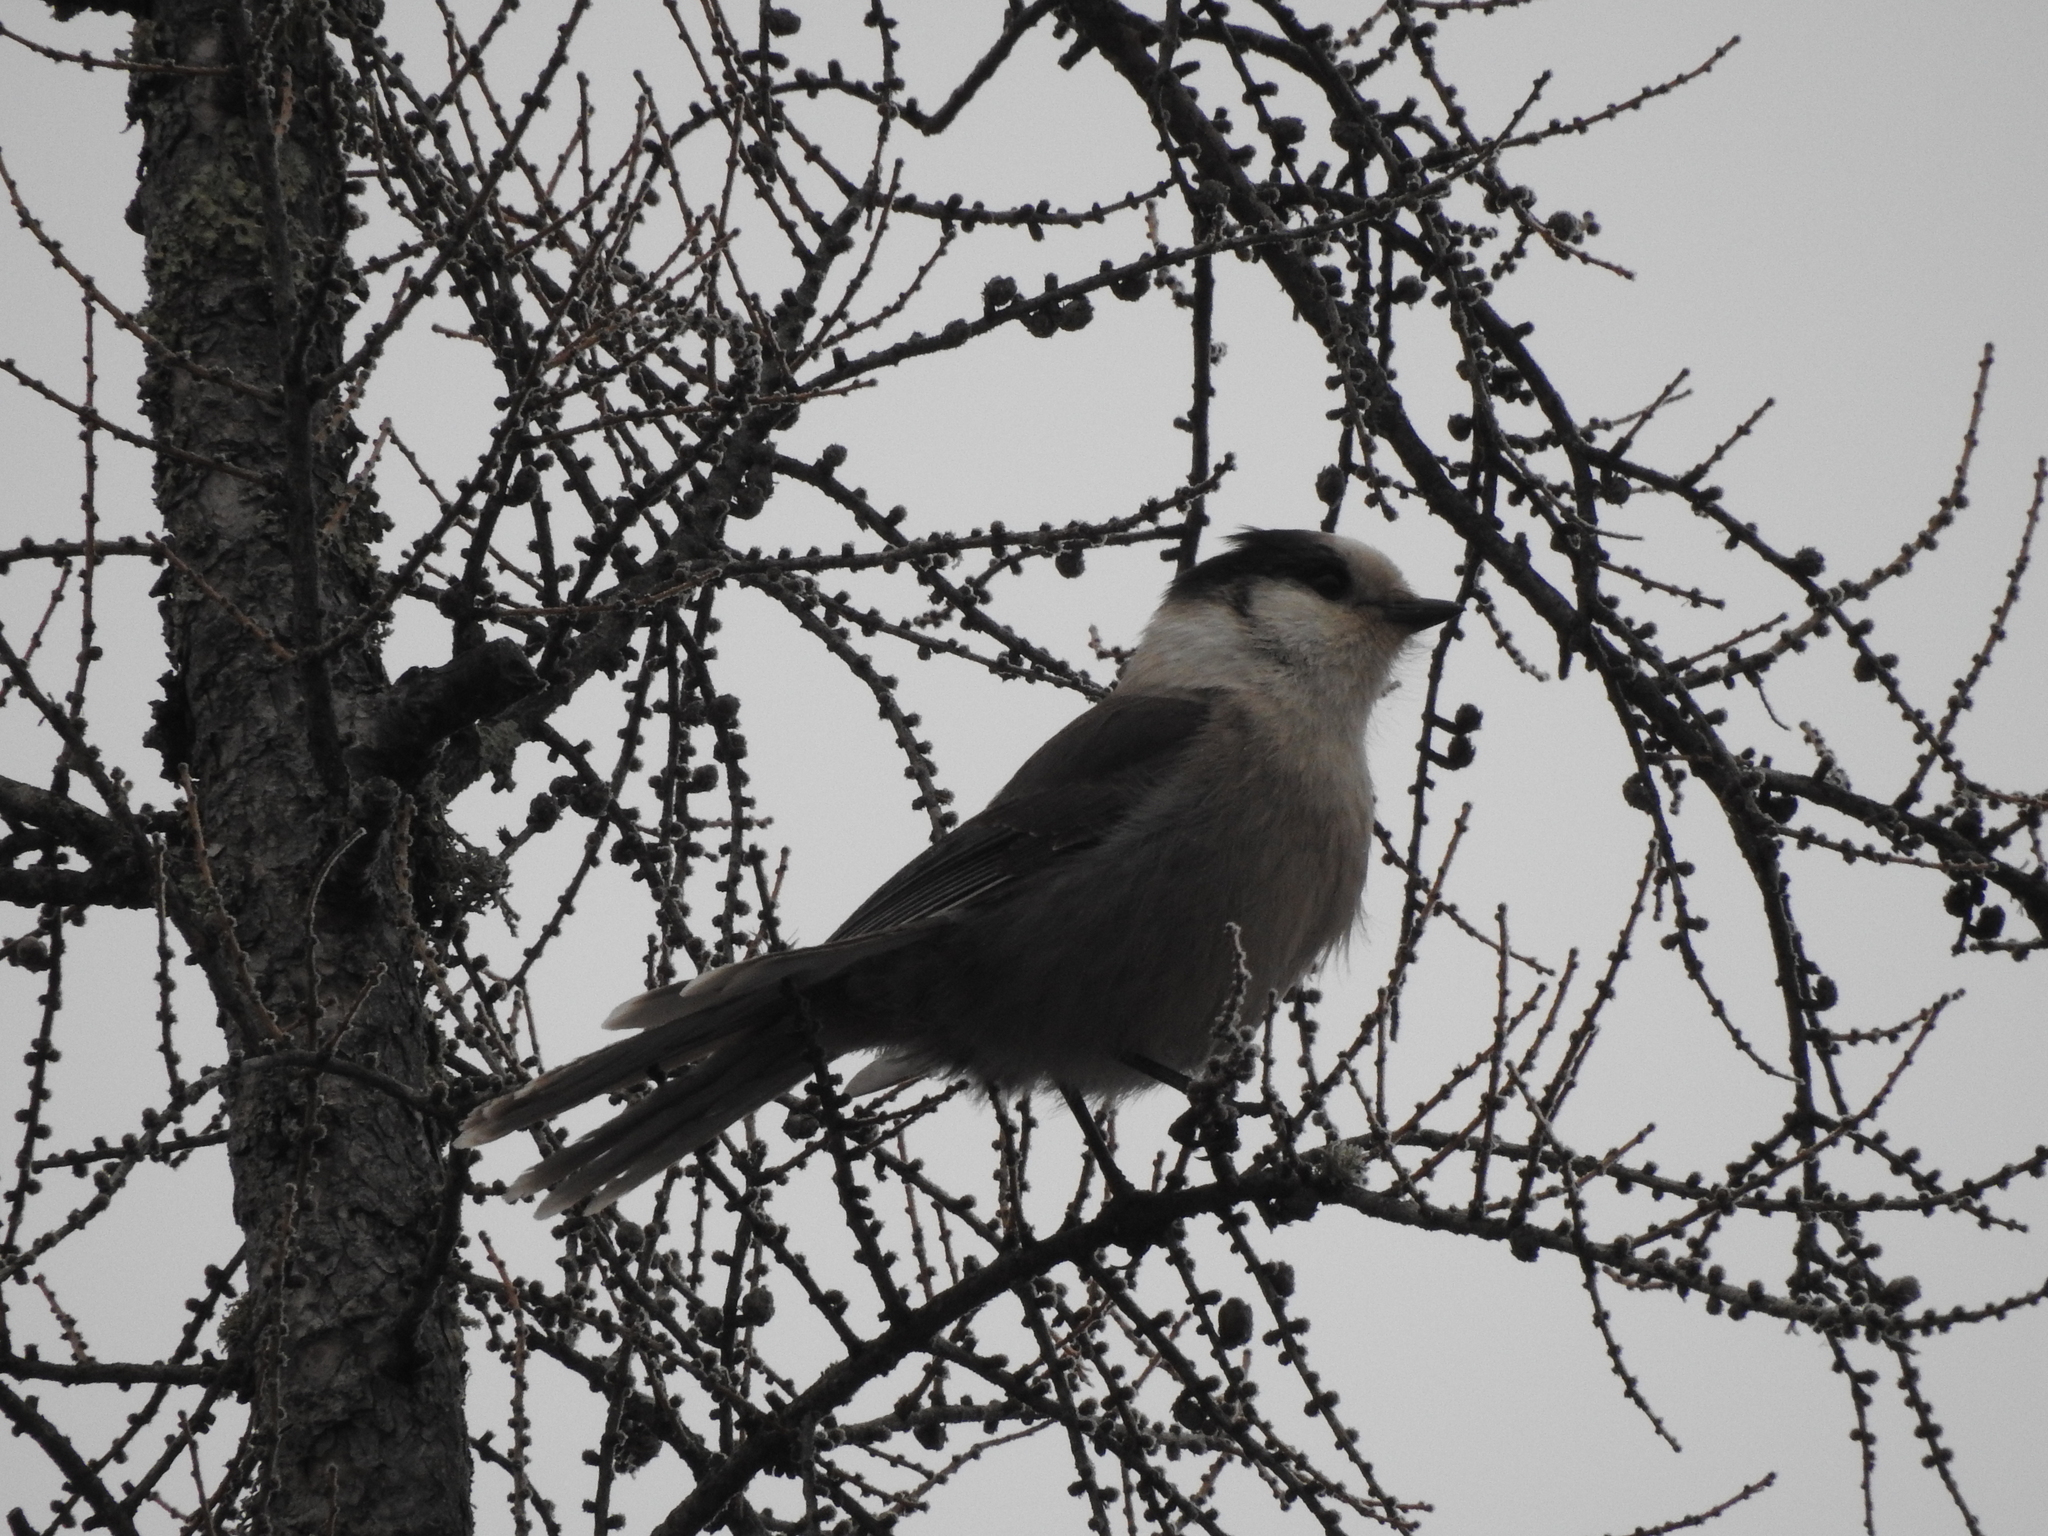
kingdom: Animalia
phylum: Chordata
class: Aves
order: Passeriformes
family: Corvidae
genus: Perisoreus
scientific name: Perisoreus canadensis
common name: Gray jay
